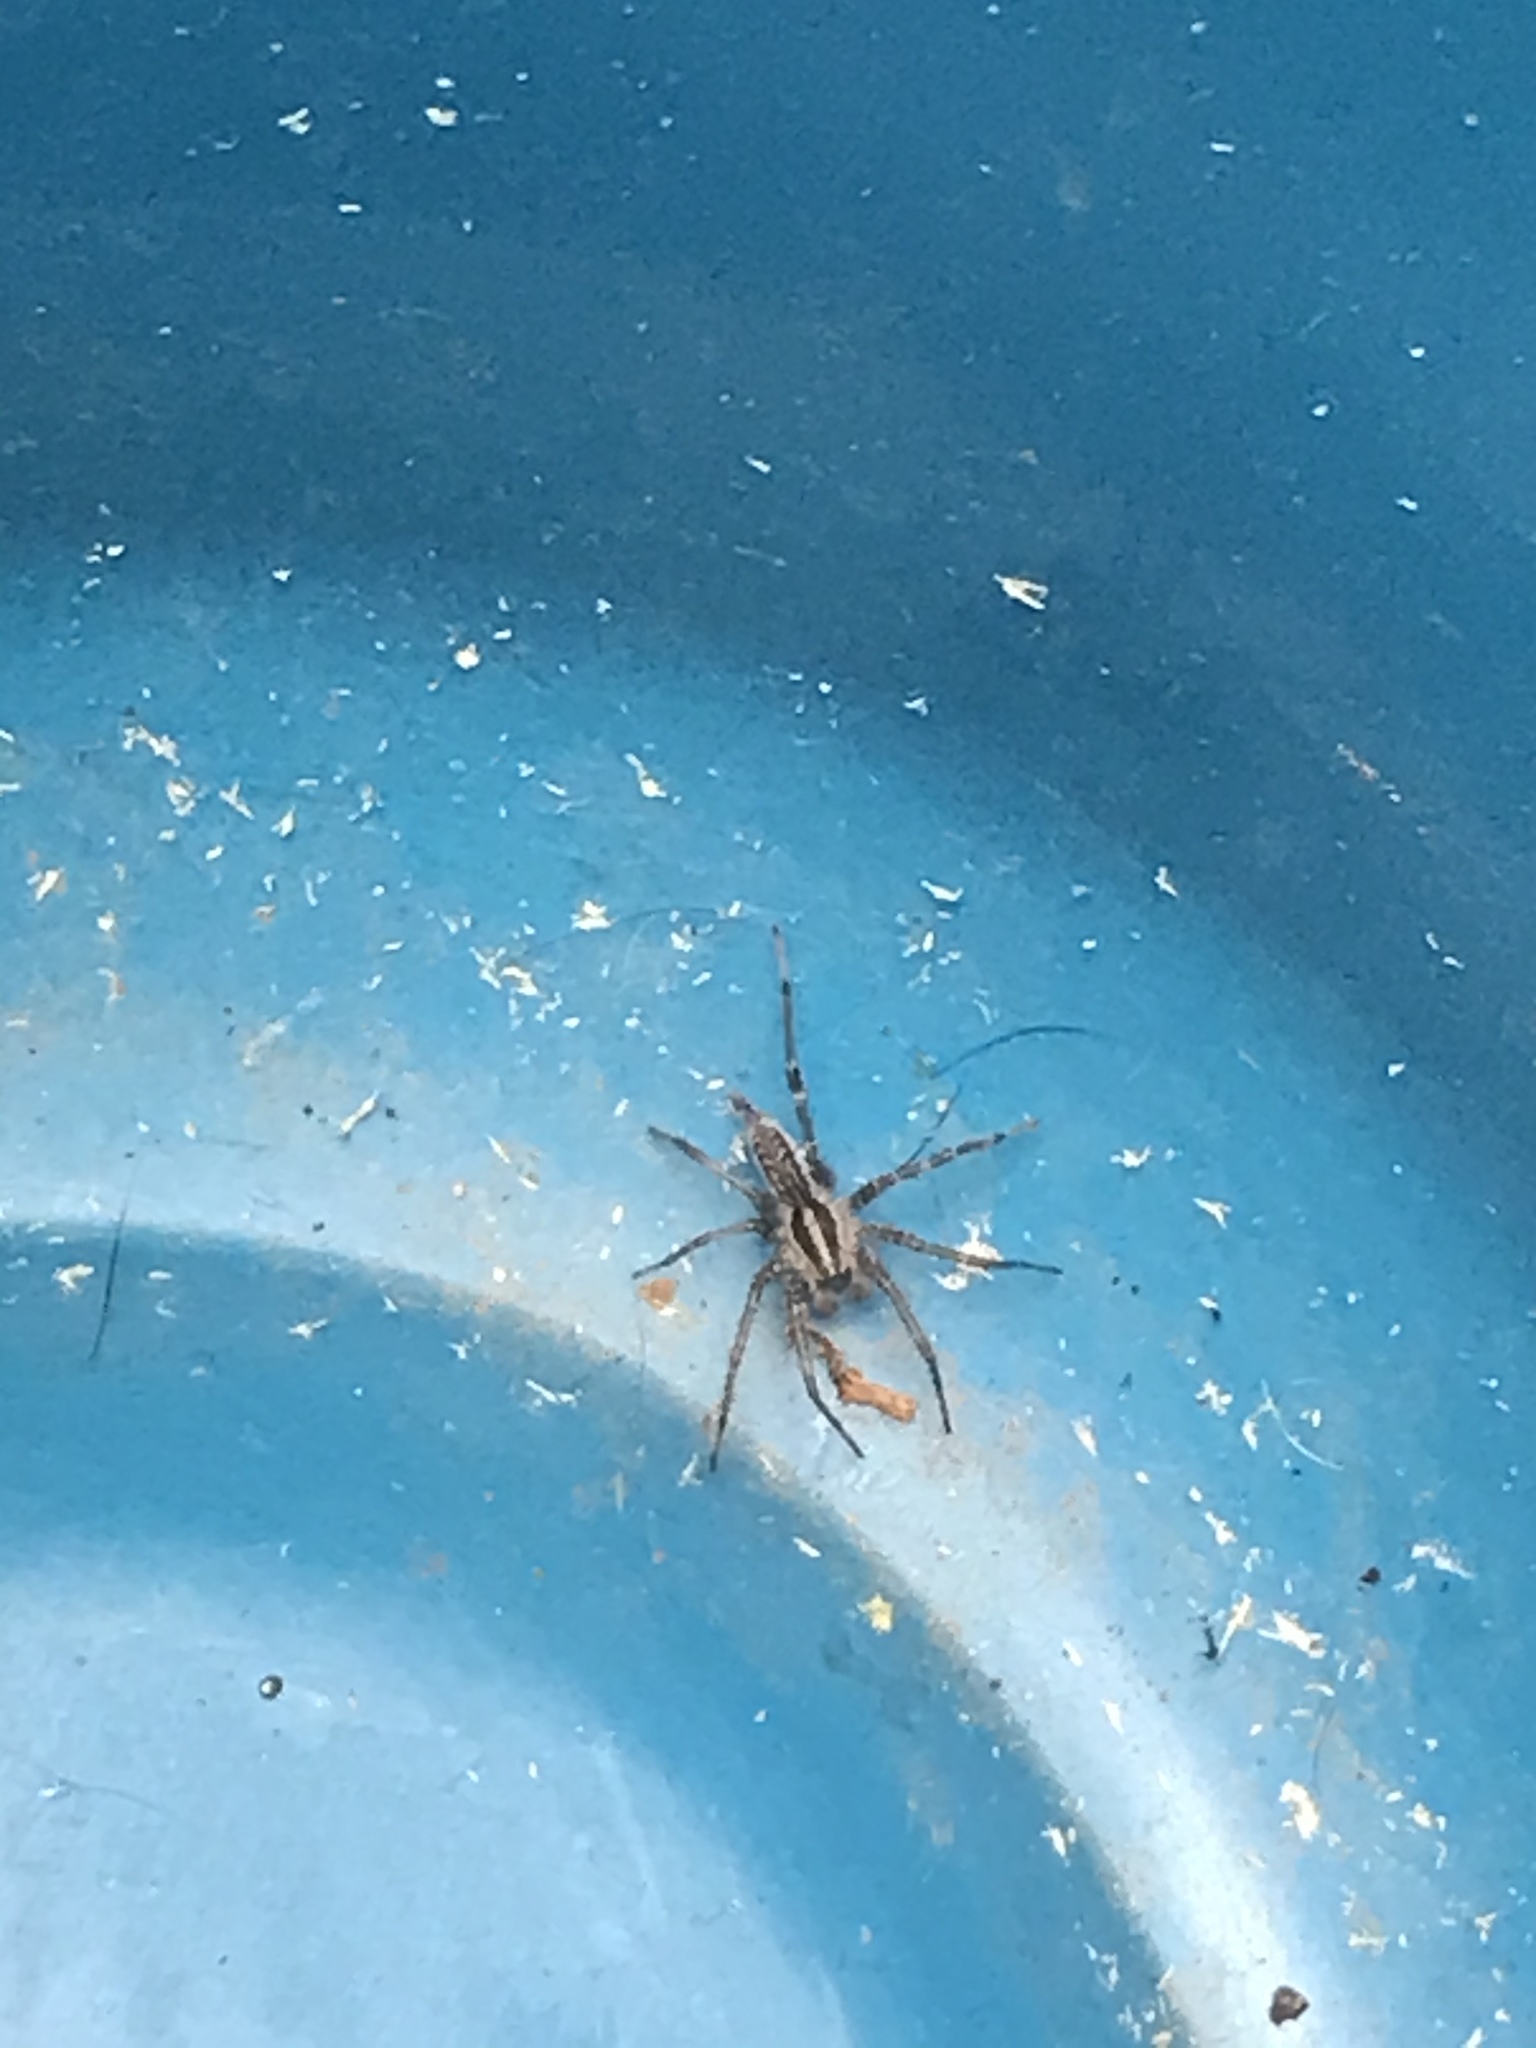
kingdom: Animalia
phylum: Arthropoda
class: Arachnida
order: Araneae
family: Agelenidae
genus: Agelenopsis
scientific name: Agelenopsis
